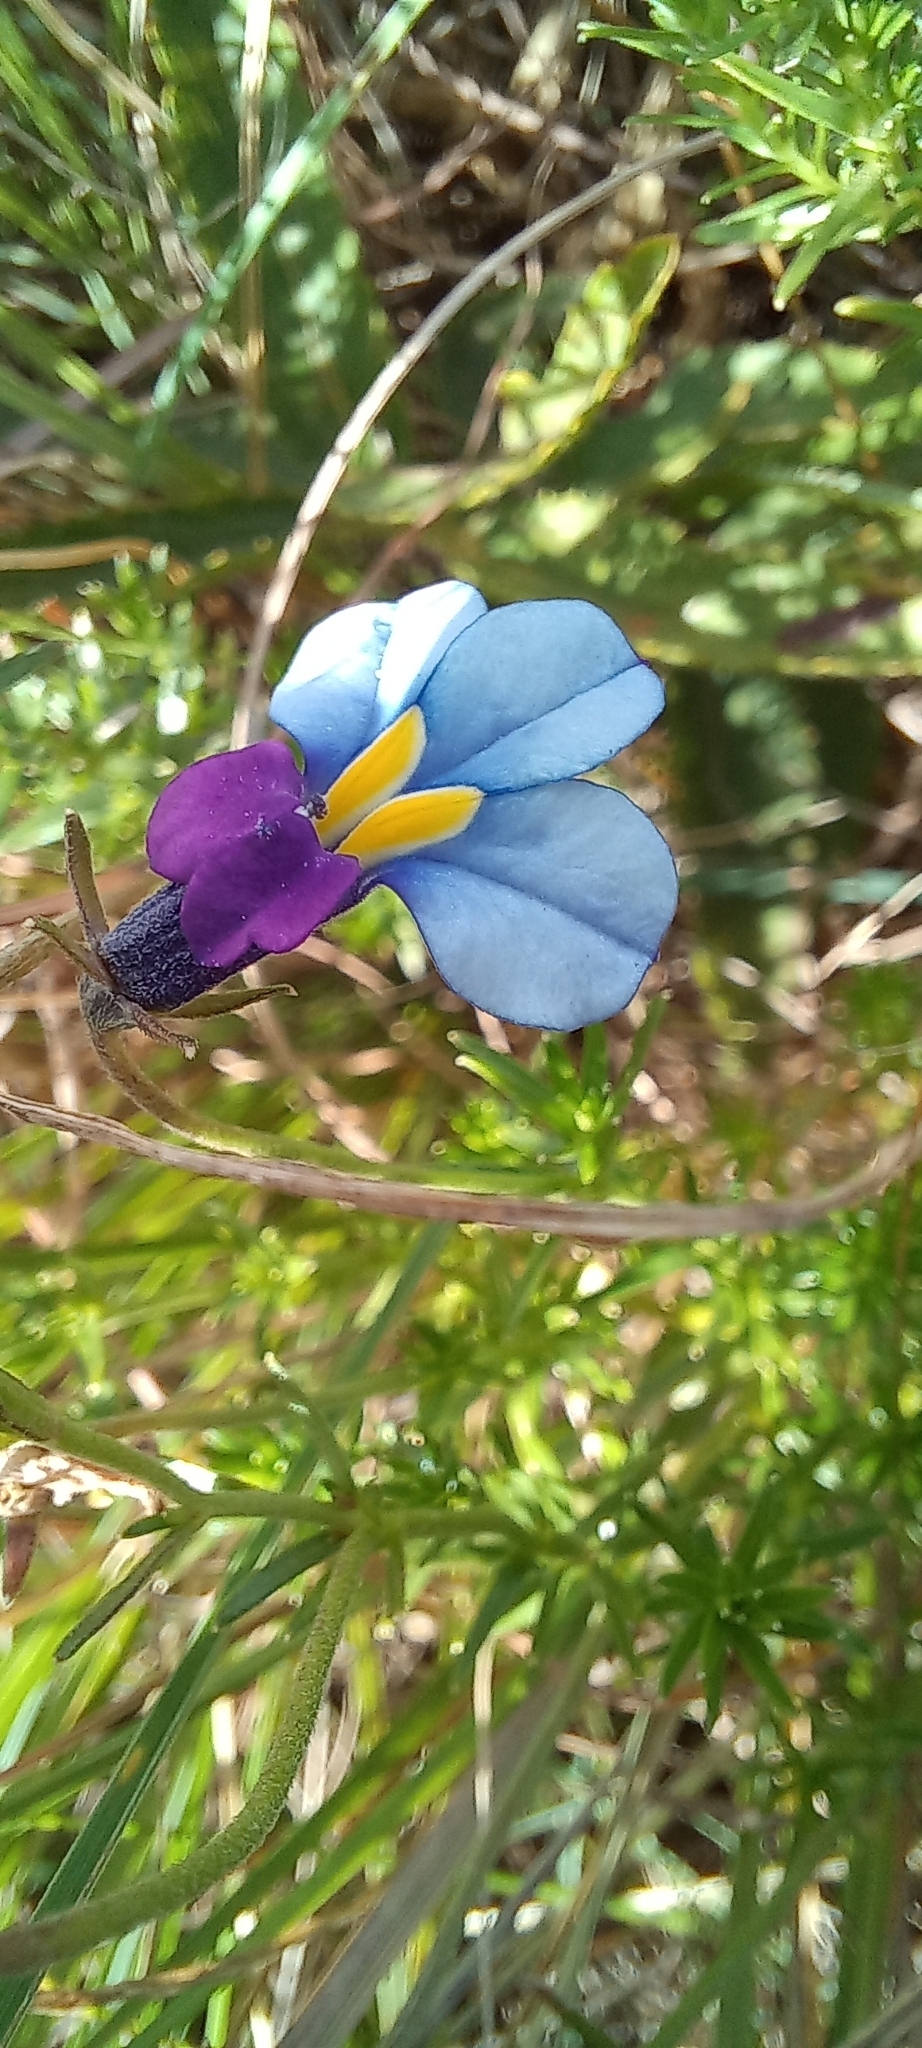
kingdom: Plantae
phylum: Tracheophyta
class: Magnoliopsida
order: Asterales
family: Campanulaceae
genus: Monopsis
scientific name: Monopsis decipiens
